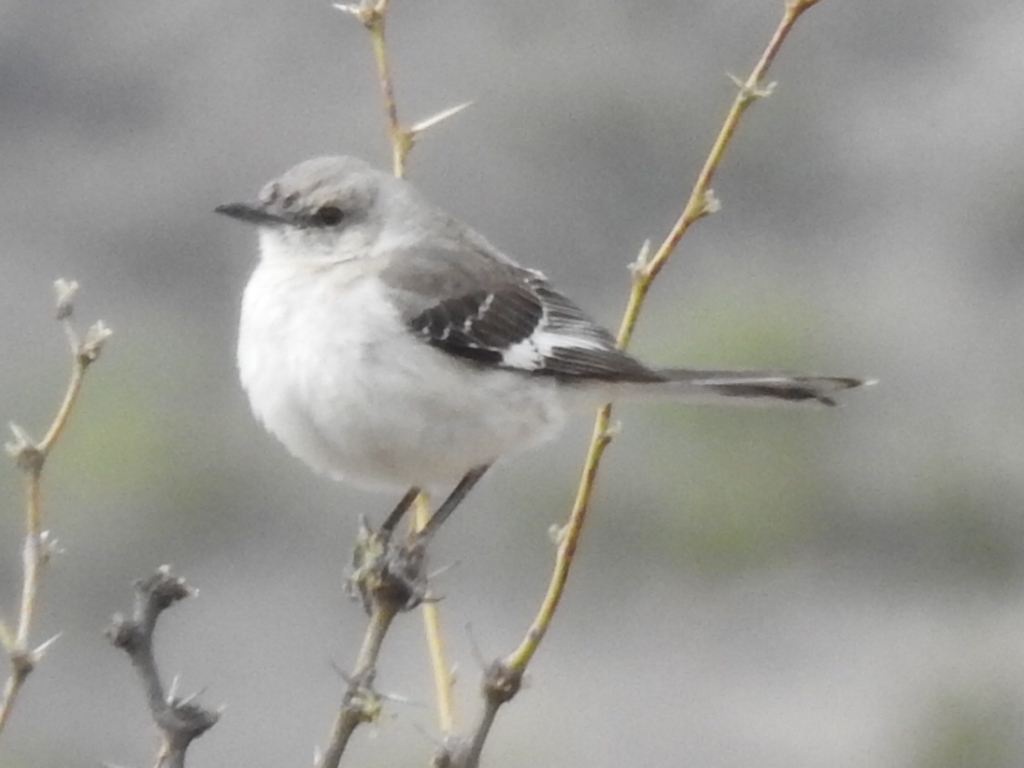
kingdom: Animalia
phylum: Chordata
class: Aves
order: Passeriformes
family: Mimidae
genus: Mimus
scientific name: Mimus polyglottos
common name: Northern mockingbird
